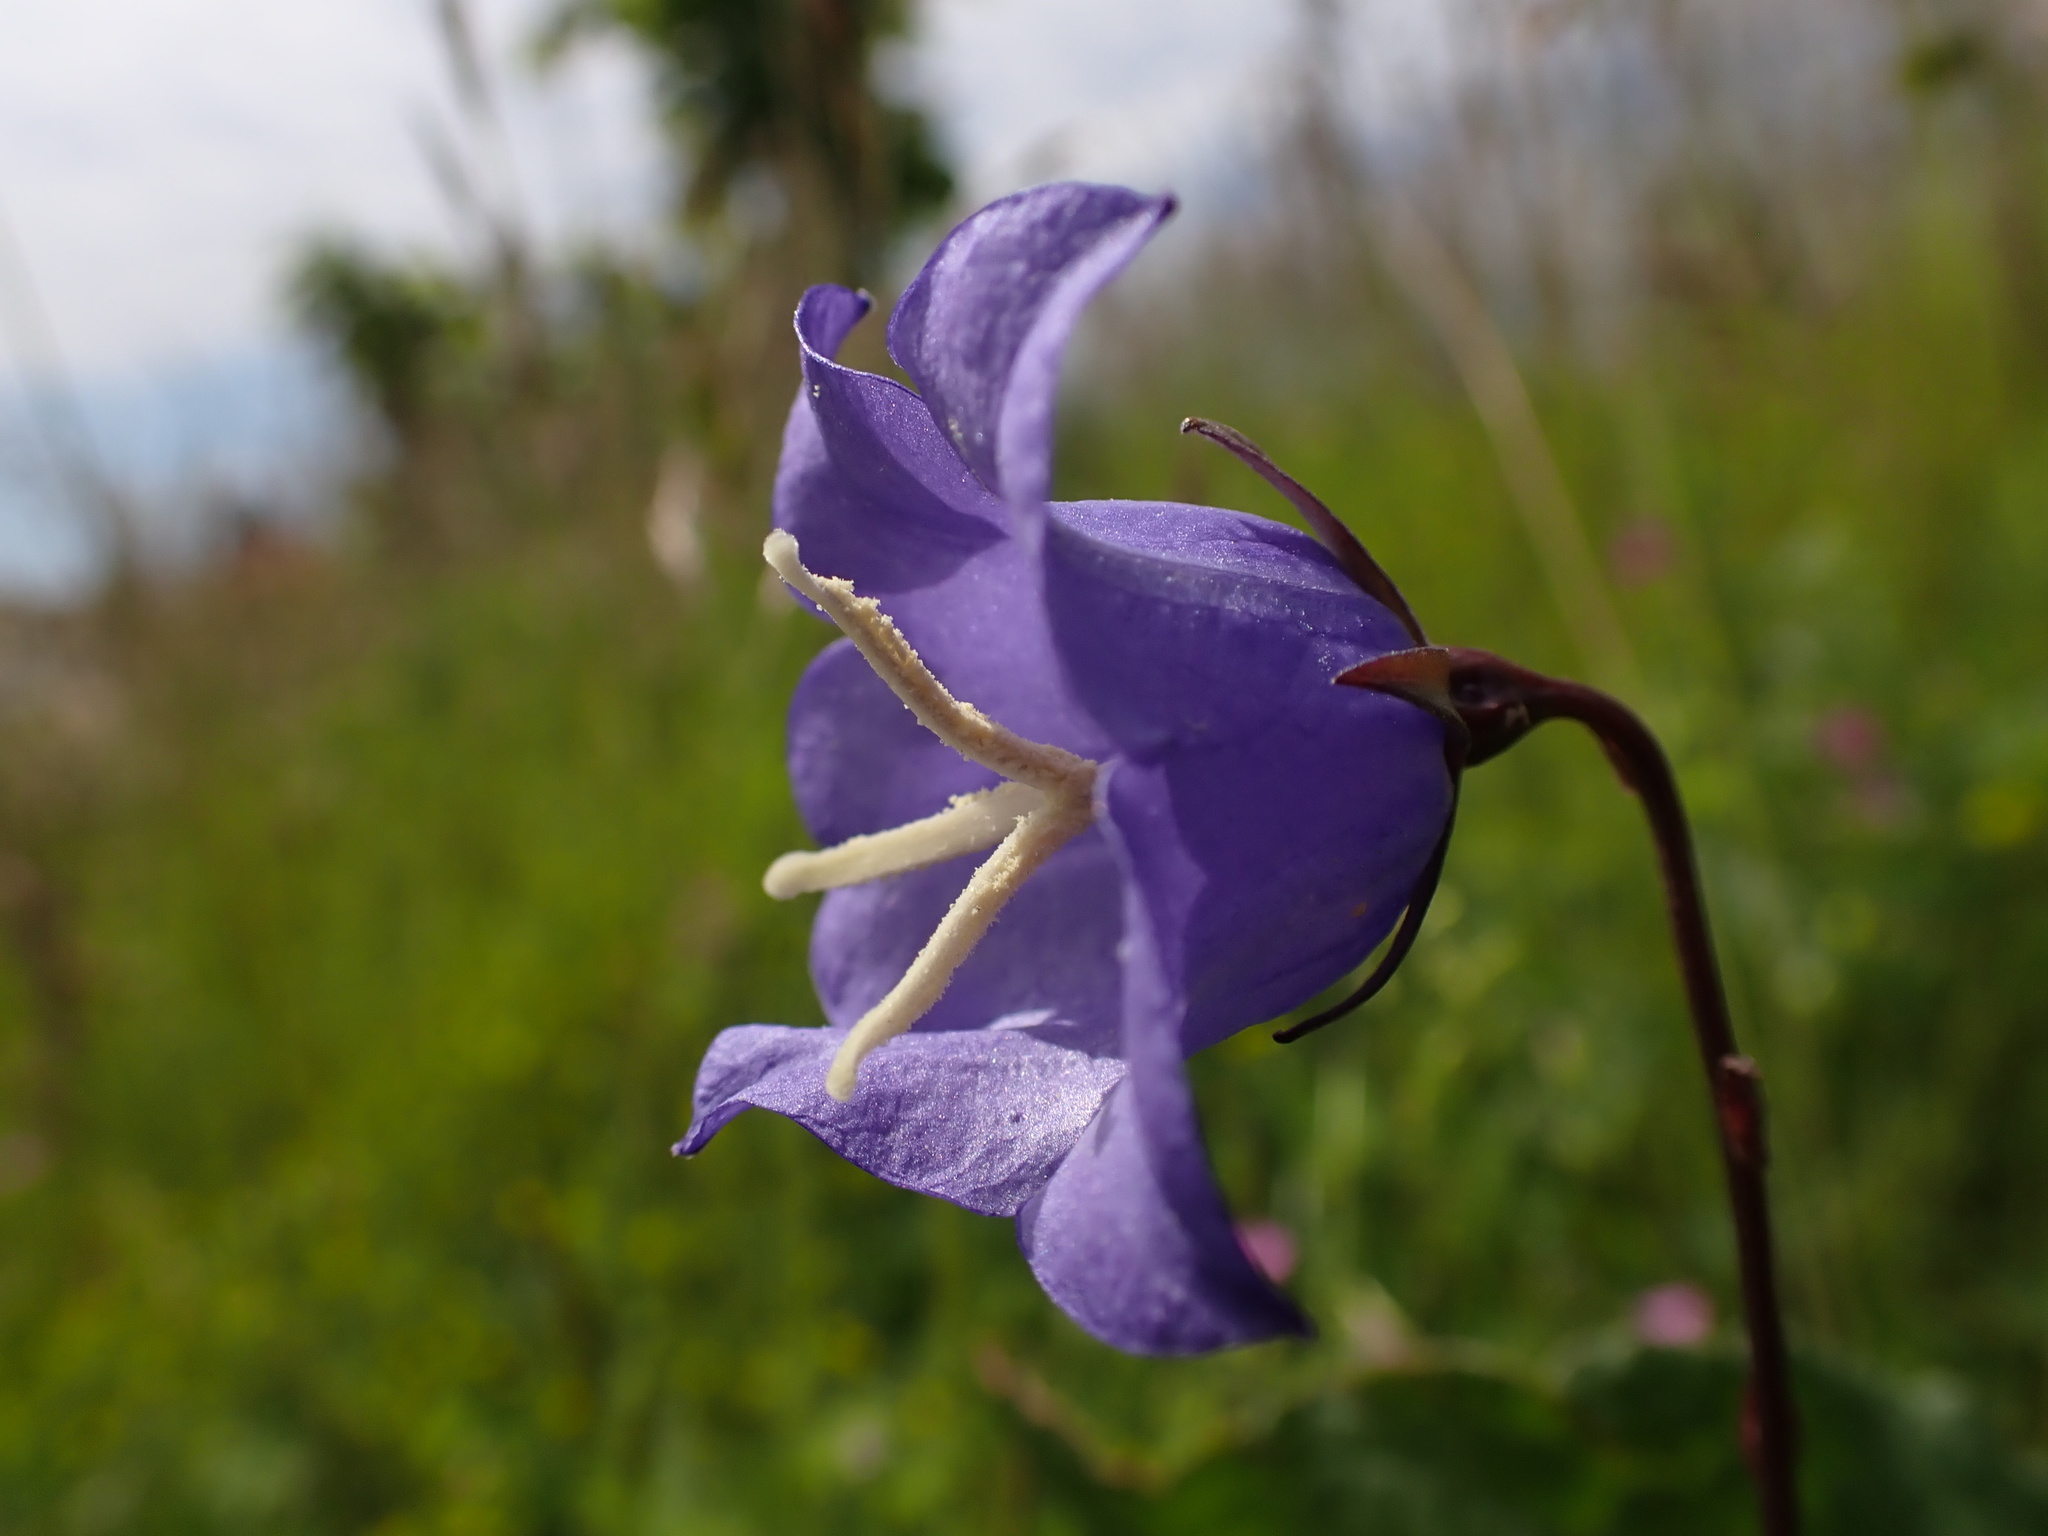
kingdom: Plantae
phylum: Tracheophyta
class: Magnoliopsida
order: Asterales
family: Campanulaceae
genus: Campanula
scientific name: Campanula persicifolia
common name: Peach-leaved bellflower
